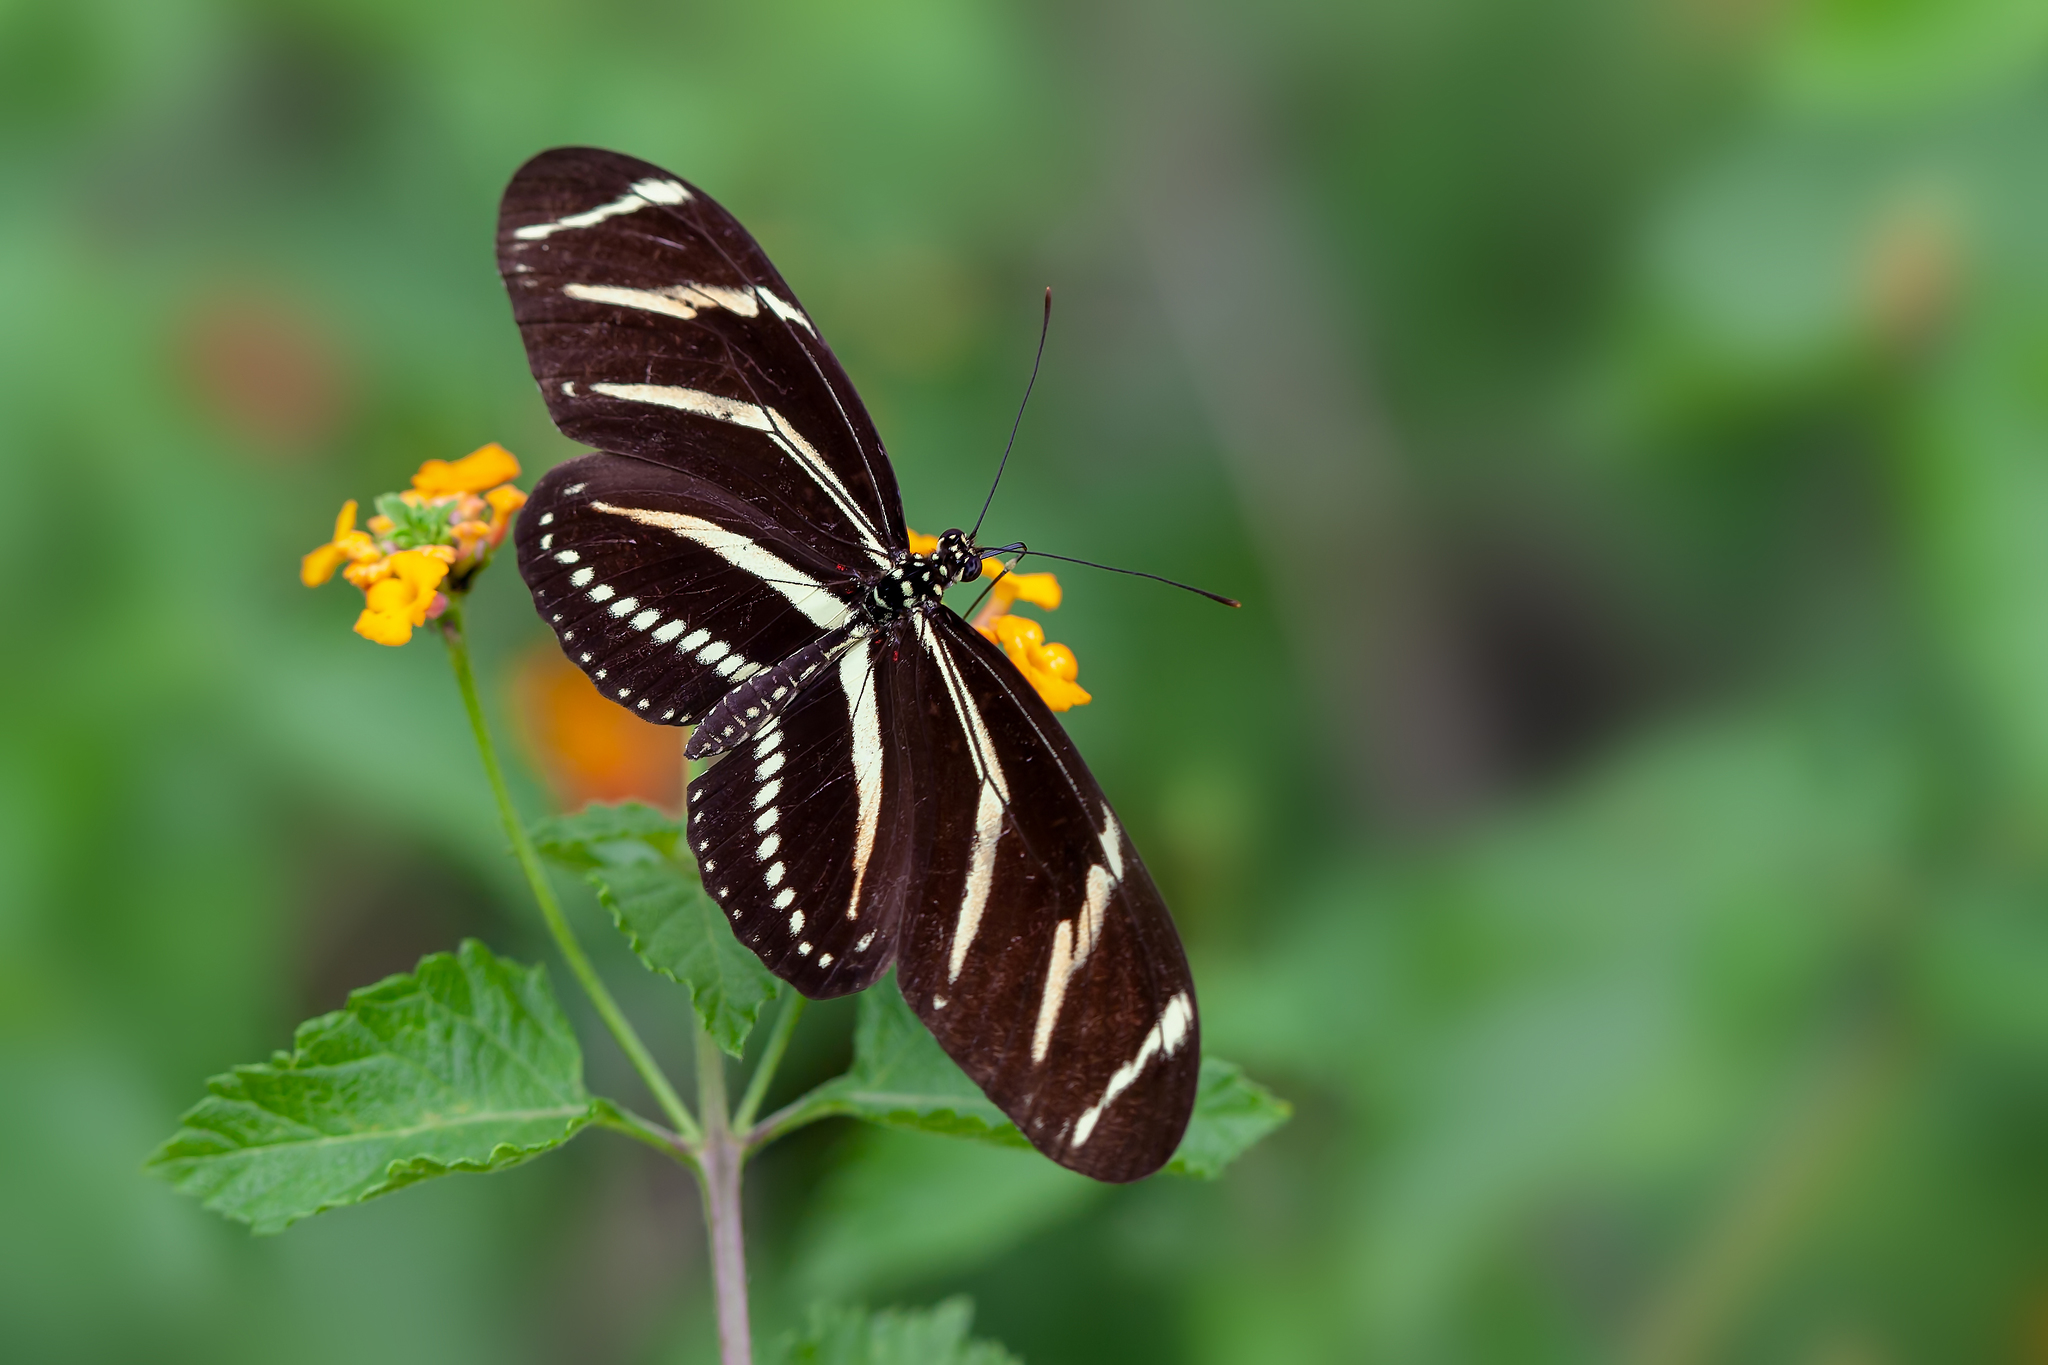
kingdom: Animalia
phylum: Arthropoda
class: Insecta
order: Lepidoptera
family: Nymphalidae
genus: Heliconius
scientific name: Heliconius charithonia
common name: Zebra long wing
